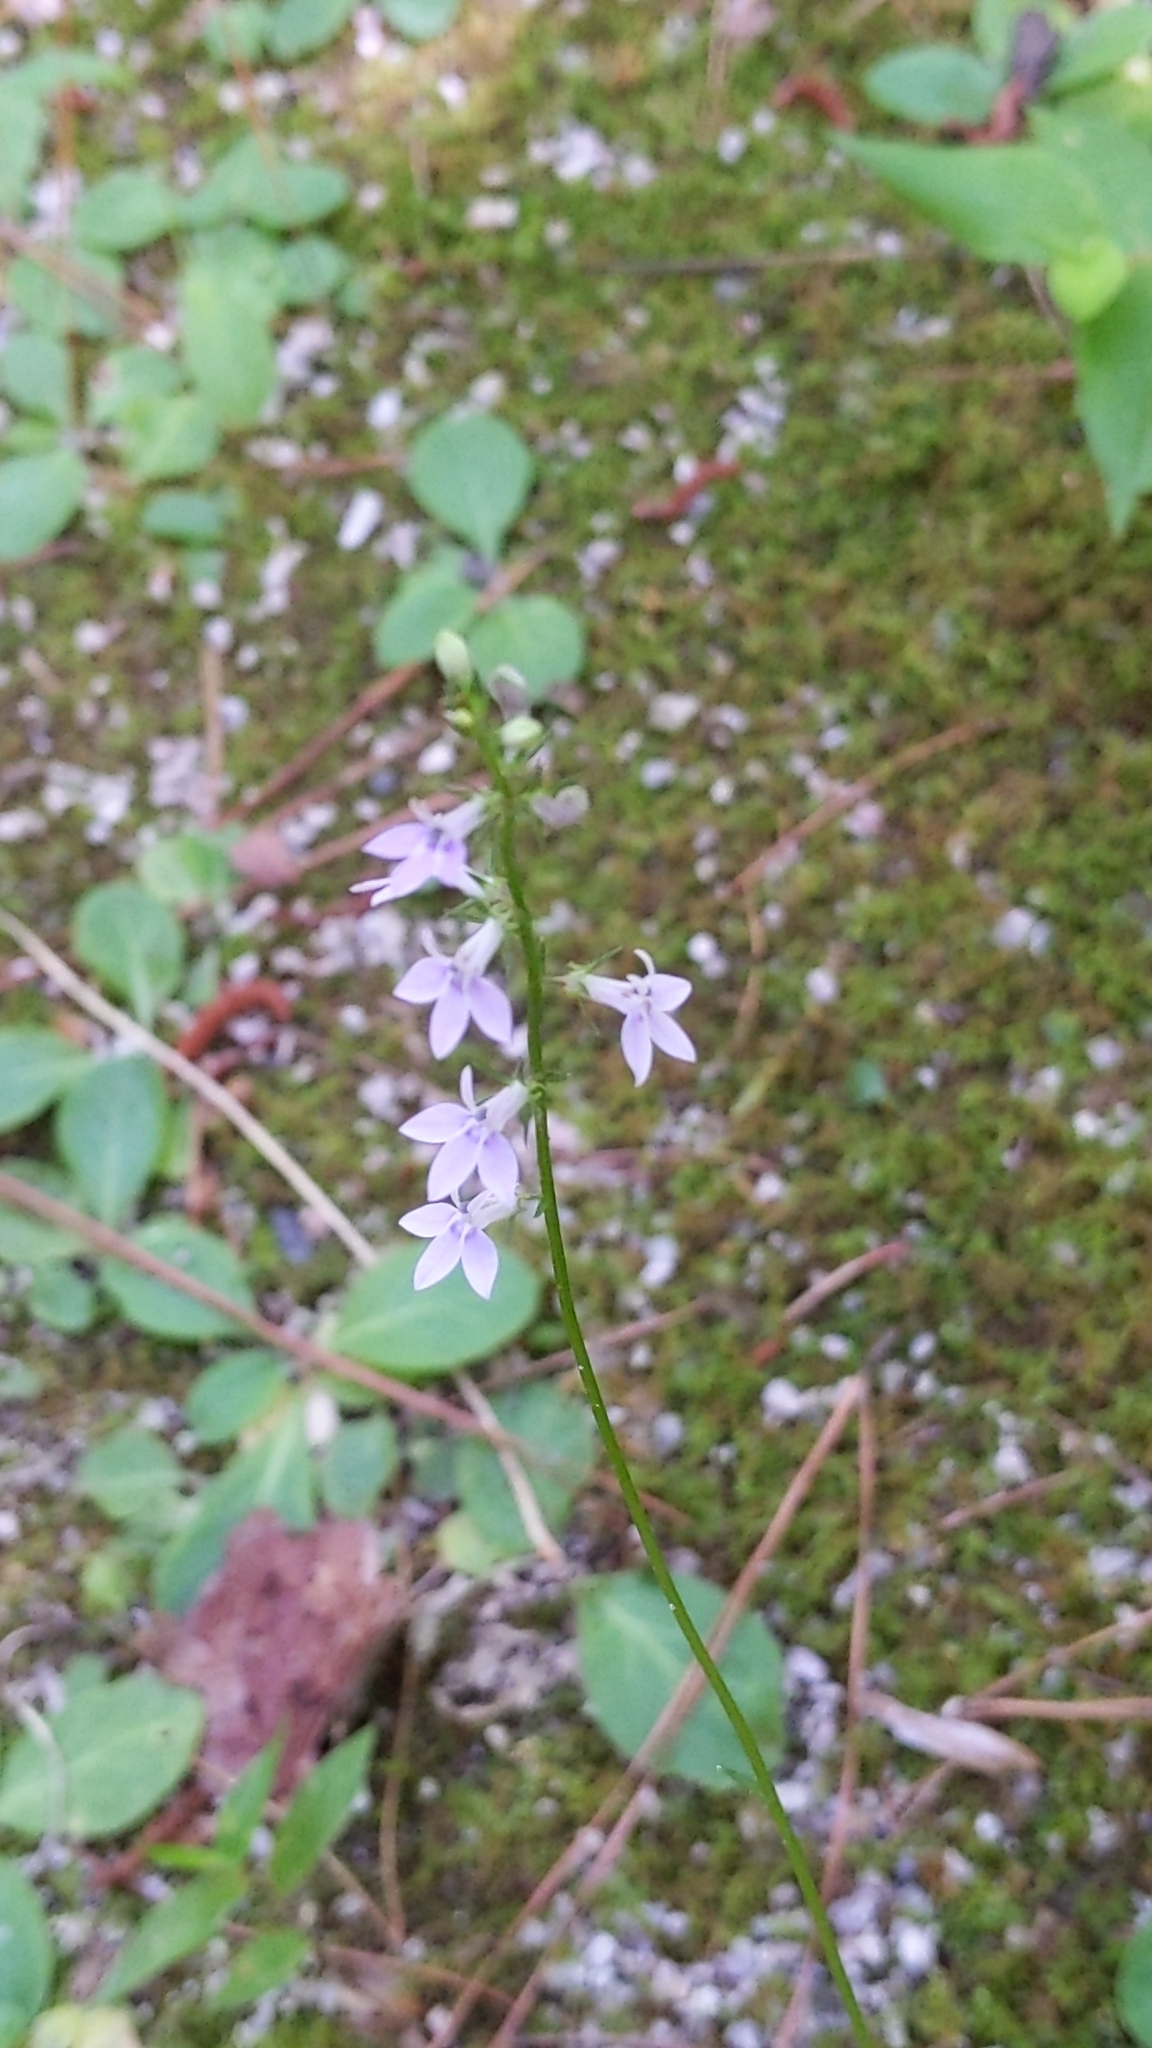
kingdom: Plantae
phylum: Tracheophyta
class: Magnoliopsida
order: Asterales
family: Campanulaceae
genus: Lobelia
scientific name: Lobelia spicata
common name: Pale-spike lobelia
